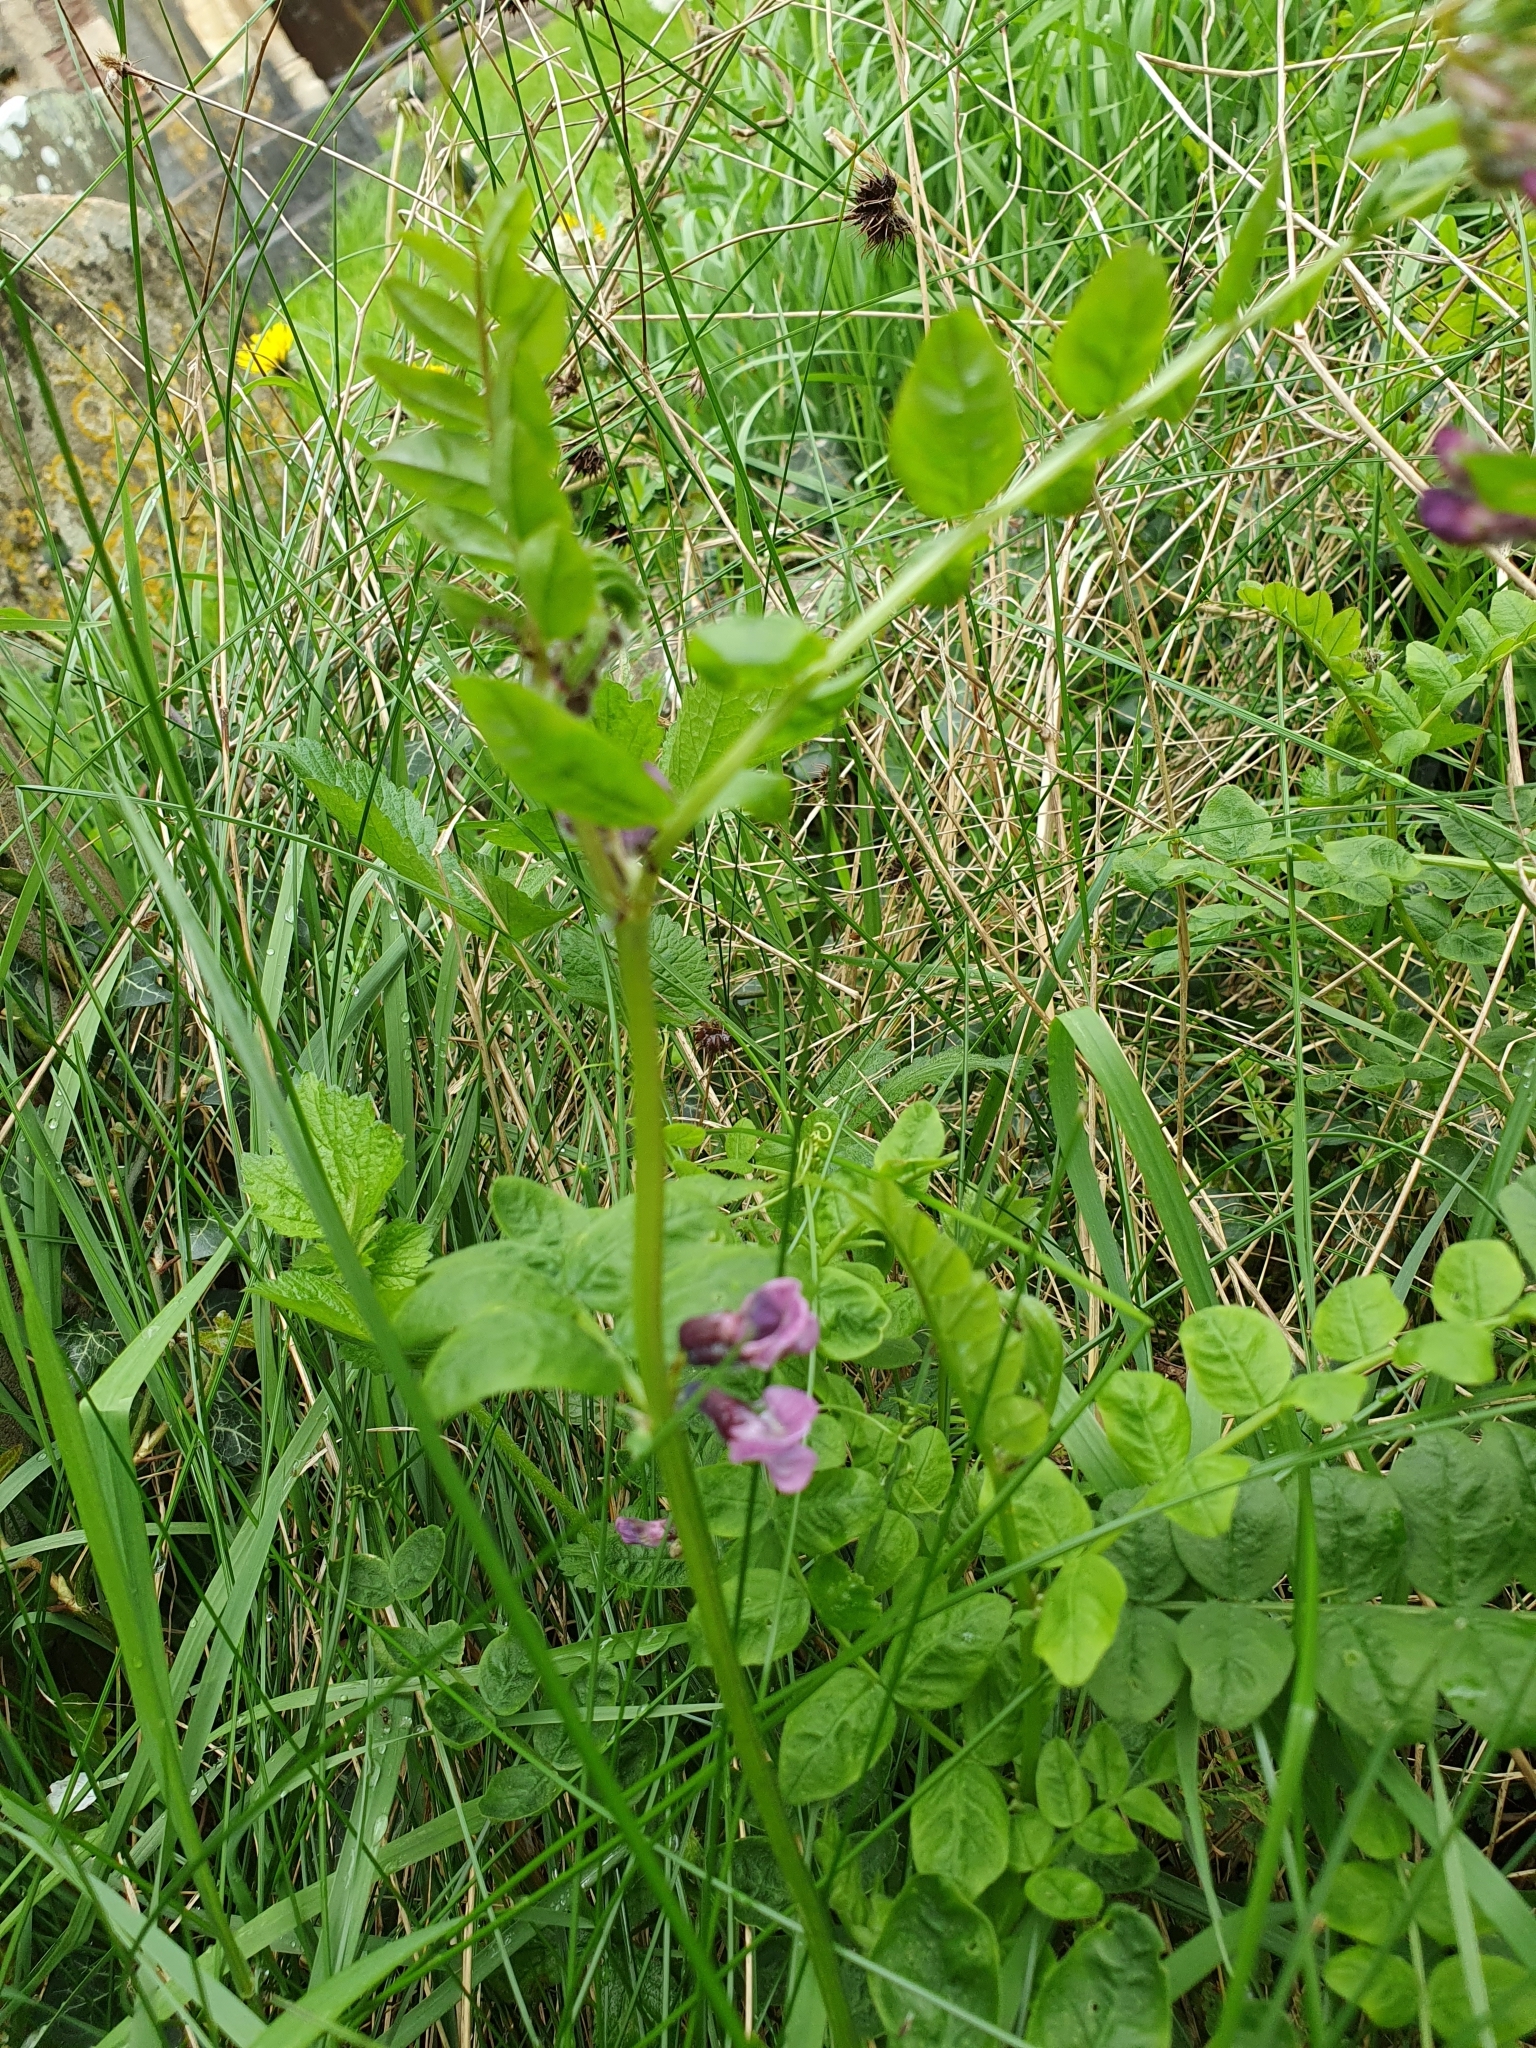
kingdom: Plantae
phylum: Tracheophyta
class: Magnoliopsida
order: Fabales
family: Fabaceae
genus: Vicia
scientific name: Vicia sepium
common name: Bush vetch
